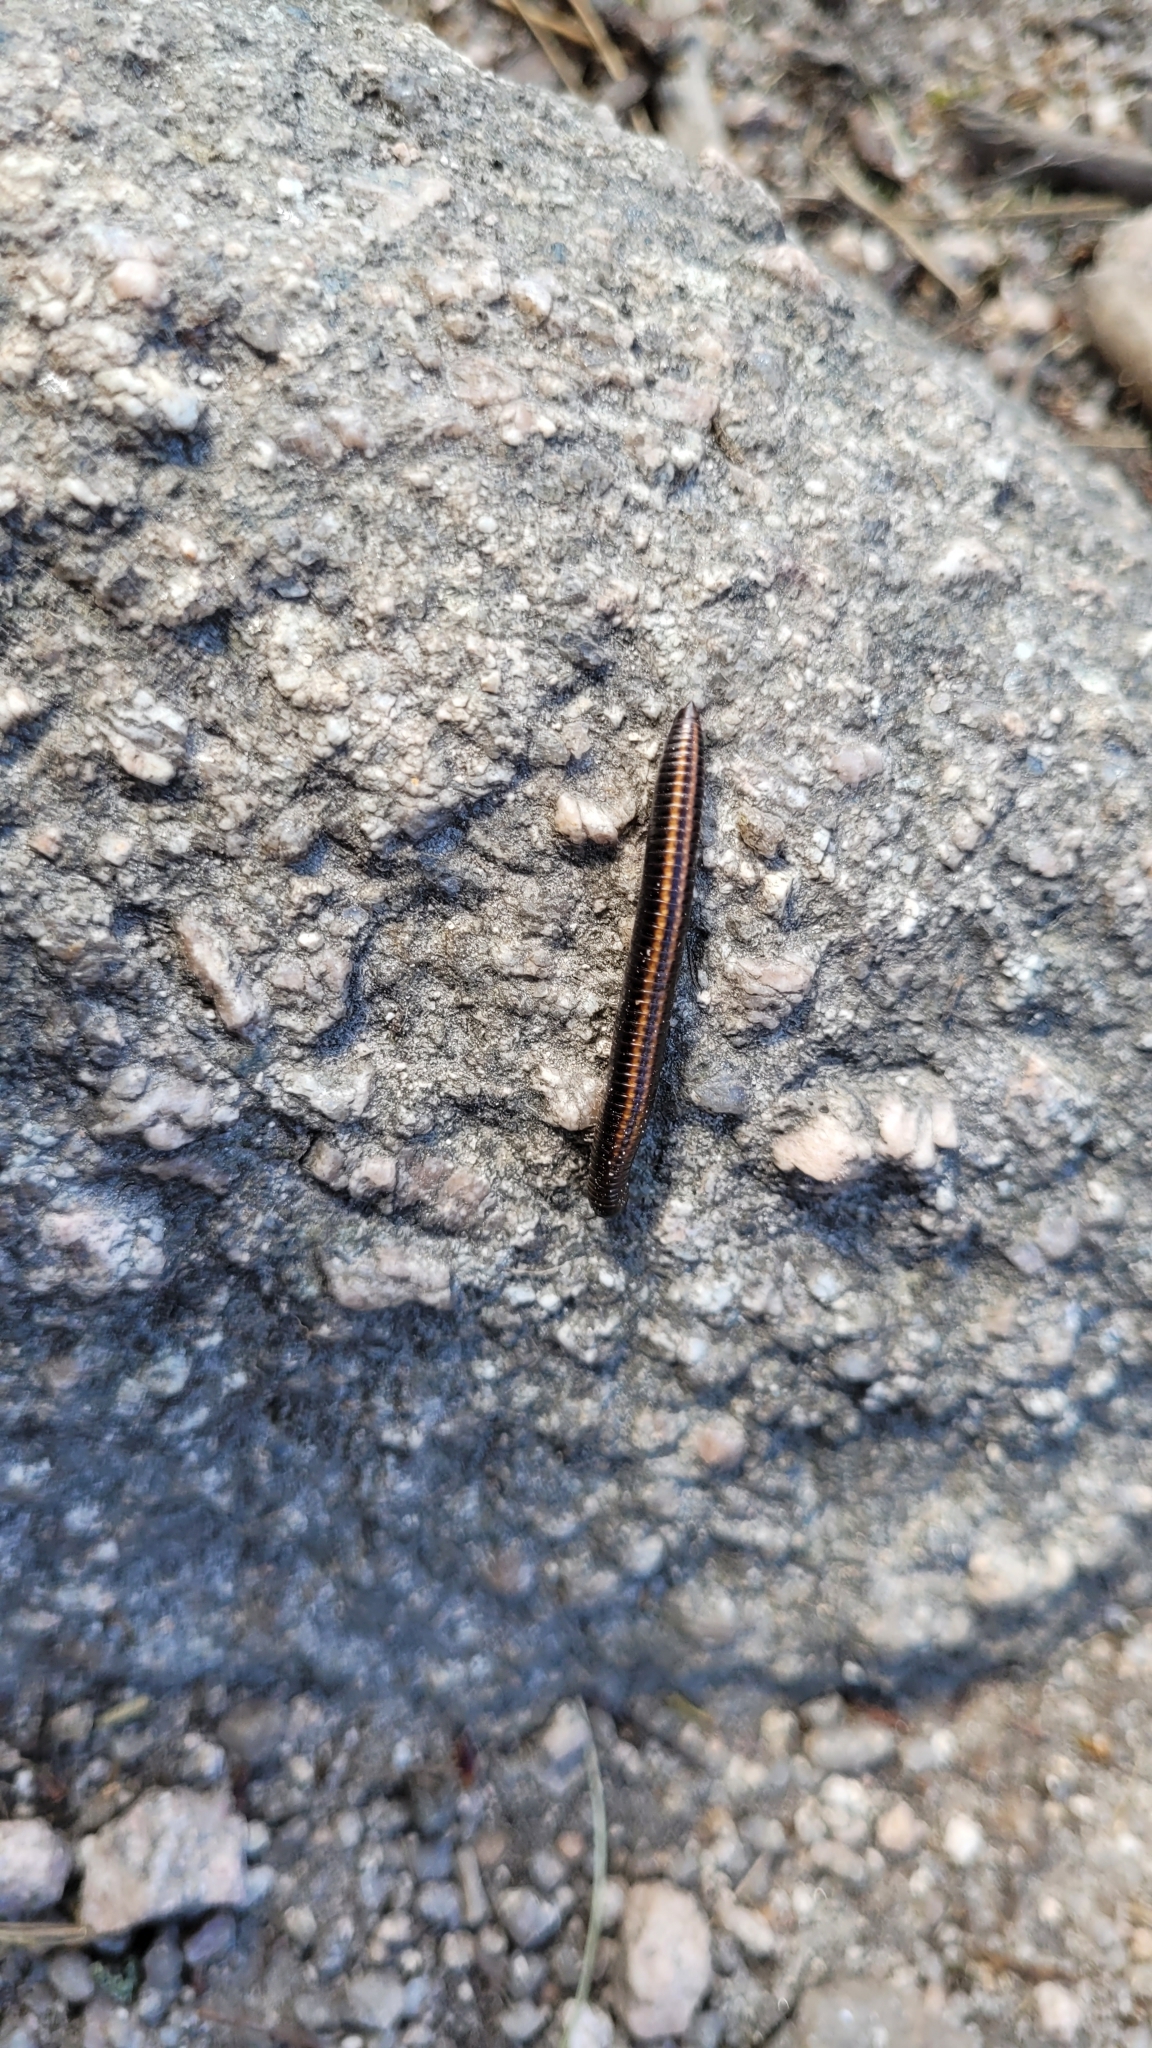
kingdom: Animalia
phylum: Arthropoda
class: Diplopoda
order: Julida
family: Julidae
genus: Ommatoiulus
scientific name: Ommatoiulus sabulosus
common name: Striped millipede
